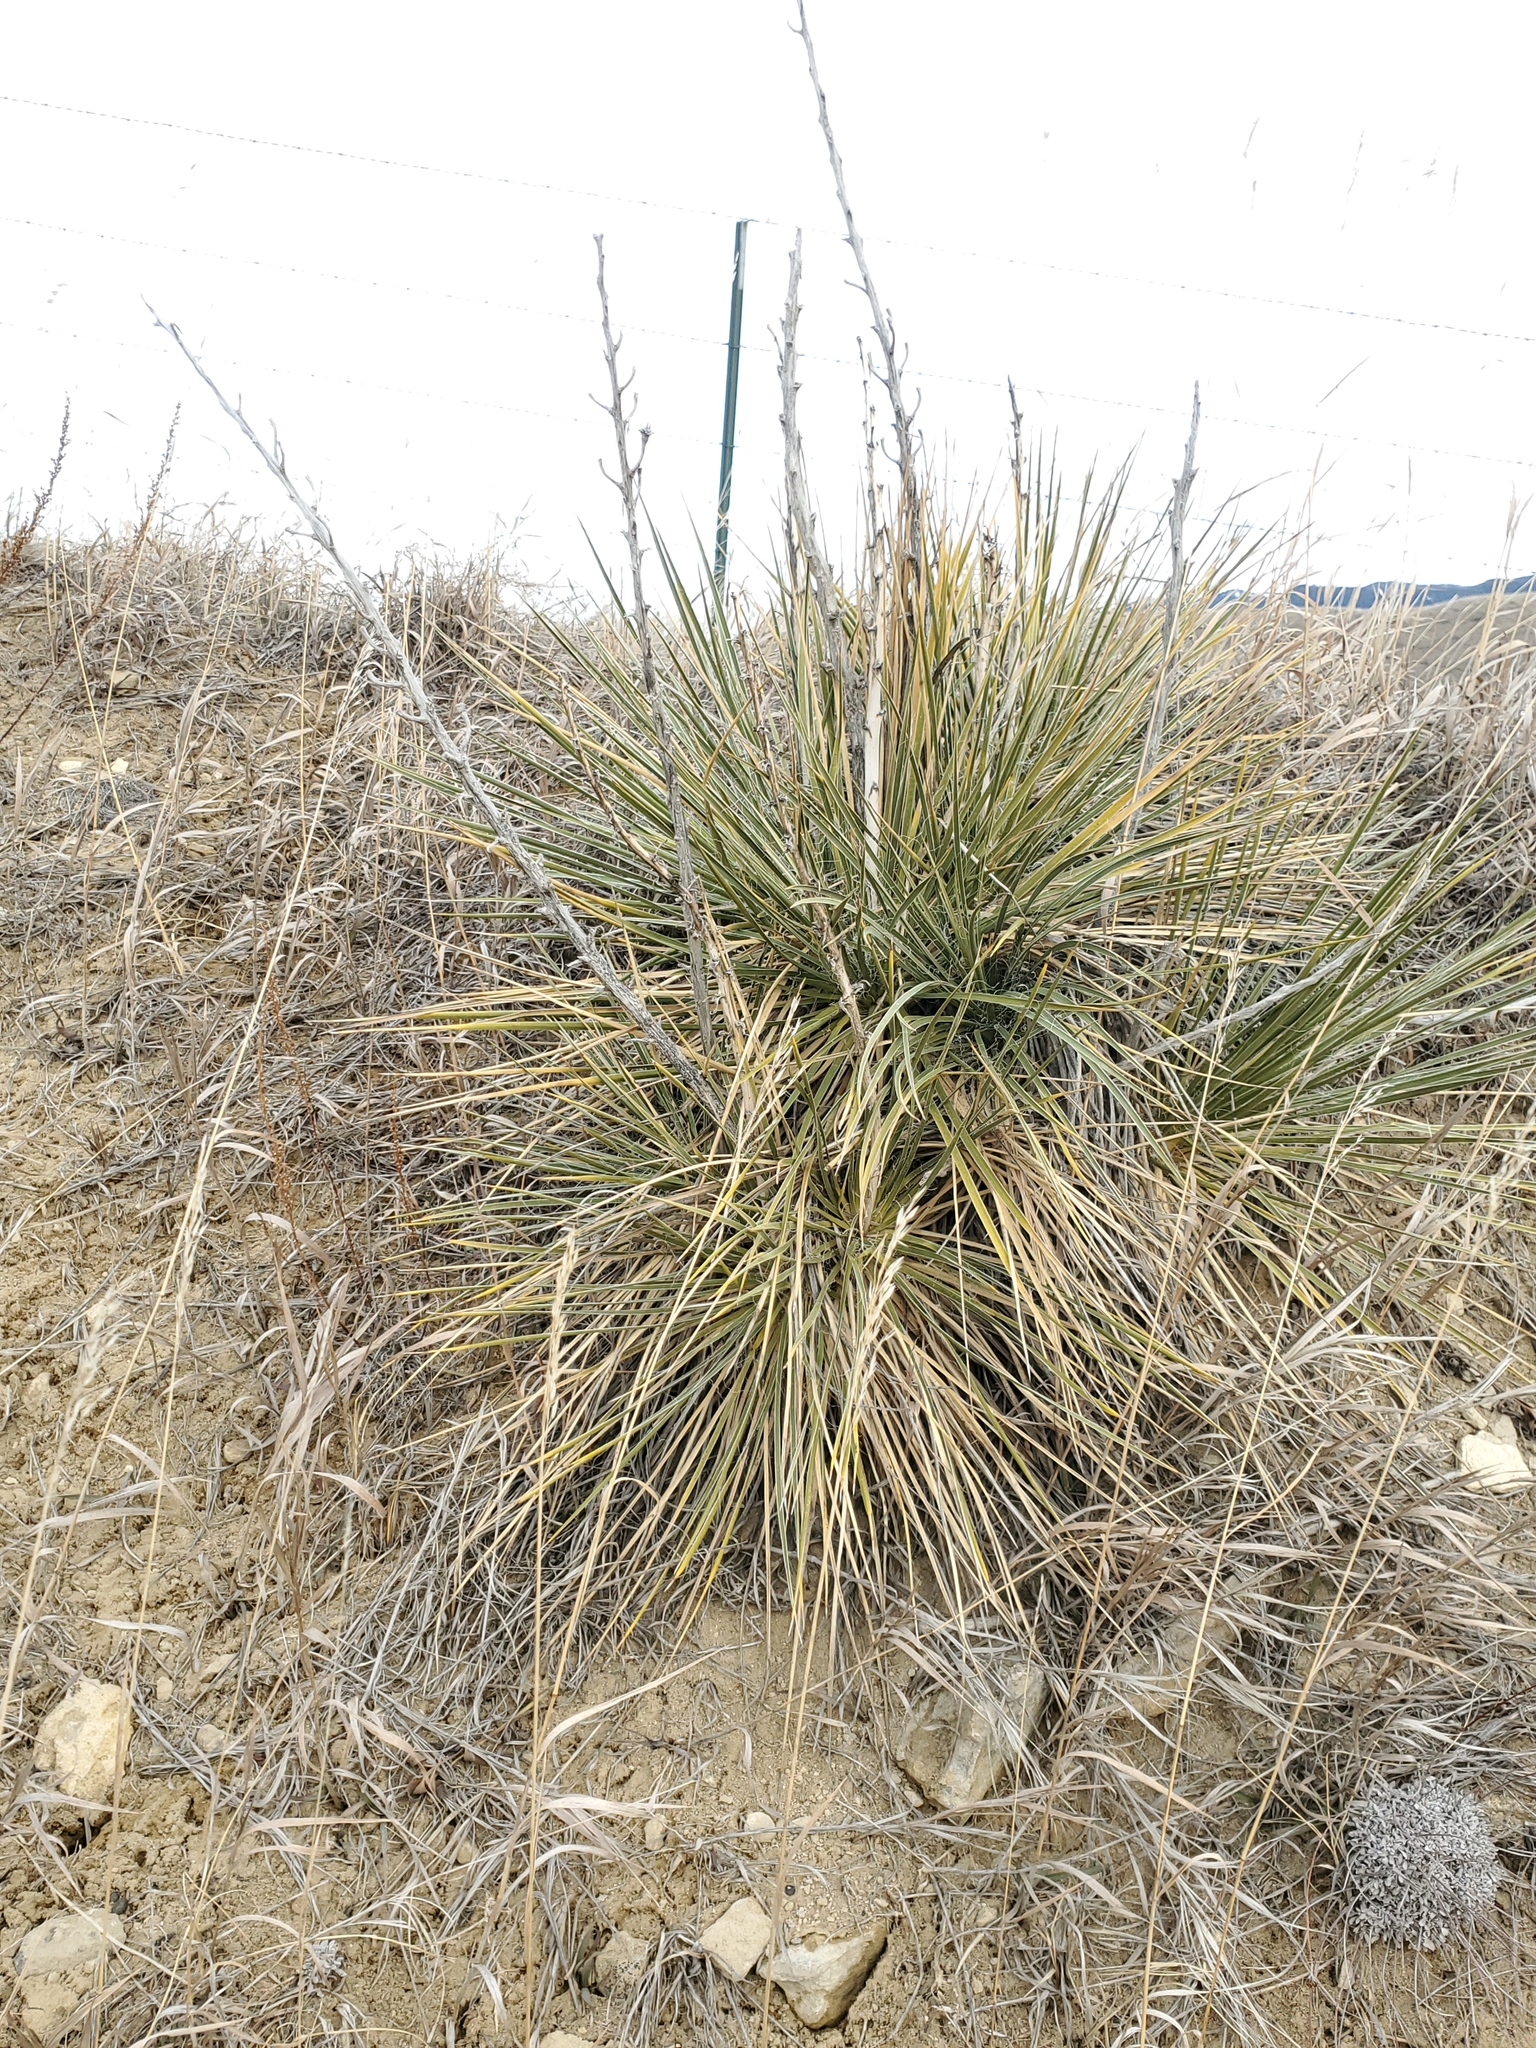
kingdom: Plantae
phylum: Tracheophyta
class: Liliopsida
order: Asparagales
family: Asparagaceae
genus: Yucca
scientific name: Yucca glauca
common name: Great plains yucca
